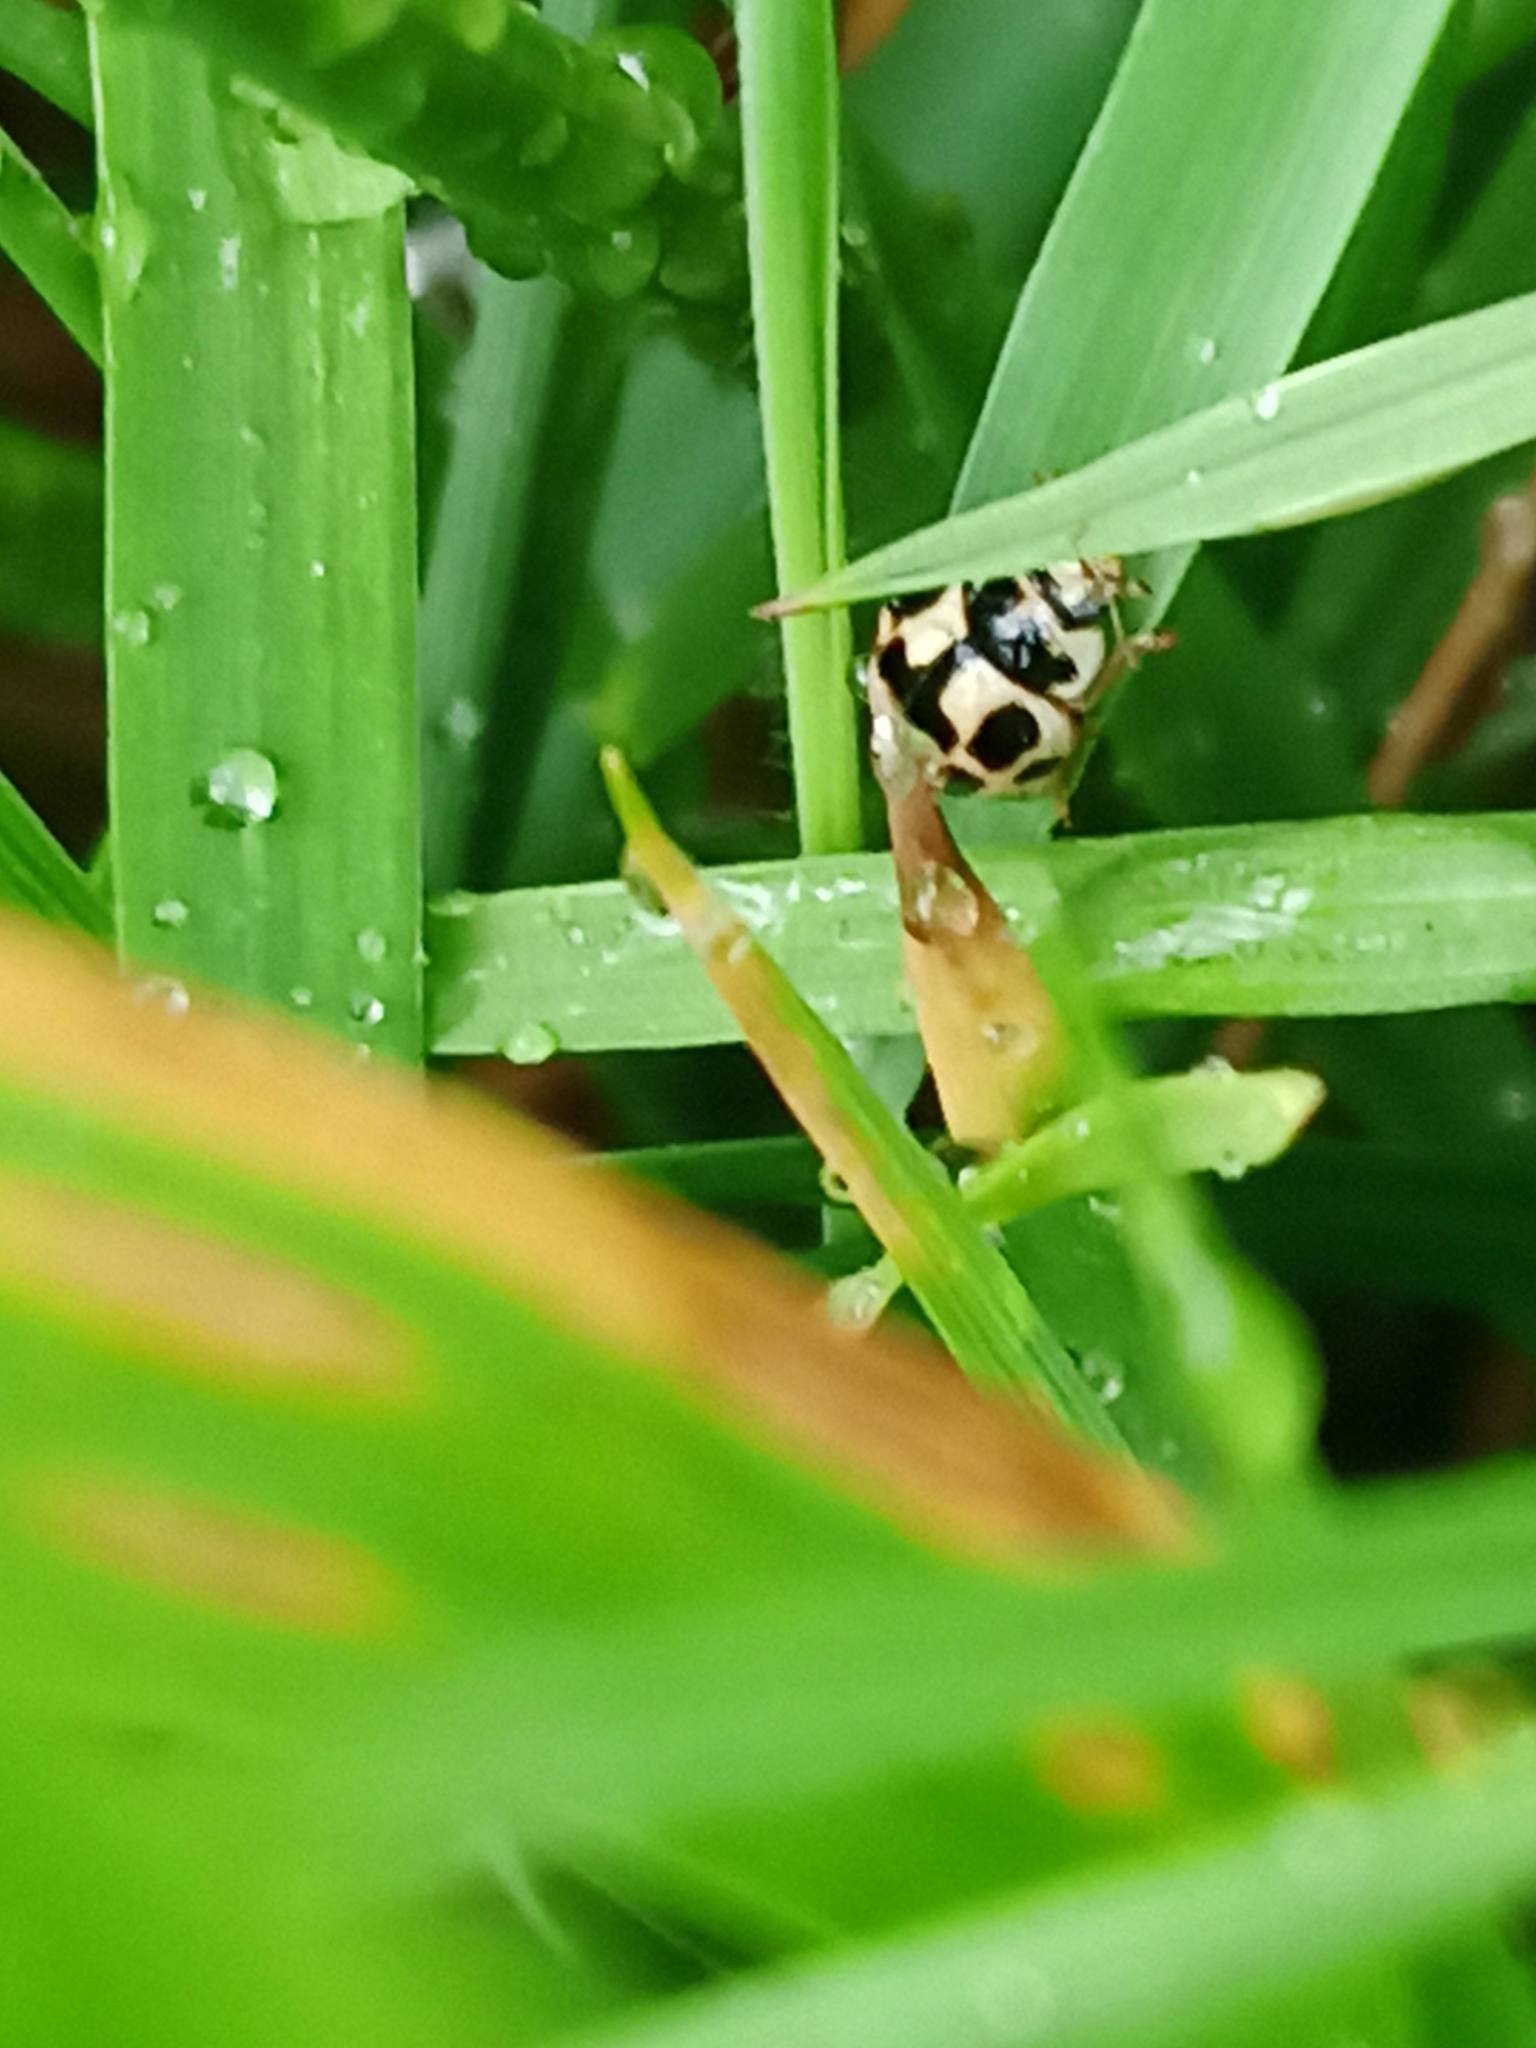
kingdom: Animalia
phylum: Arthropoda
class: Insecta
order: Coleoptera
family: Coccinellidae
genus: Propylaea
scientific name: Propylaea quatuordecimpunctata
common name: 14-spotted ladybird beetle
